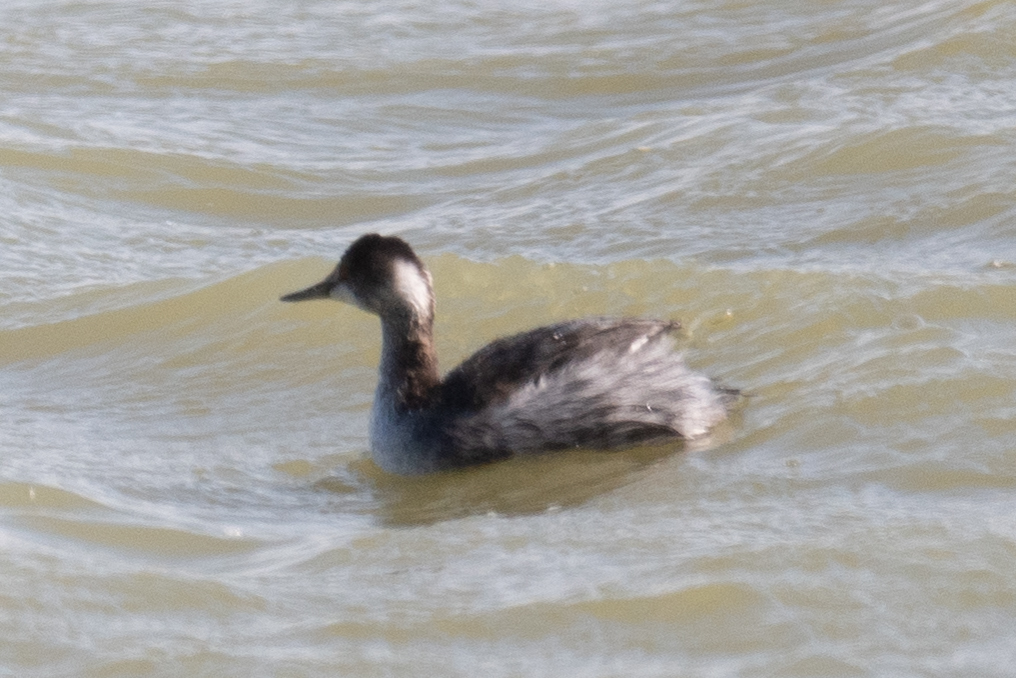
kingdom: Animalia
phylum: Chordata
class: Aves
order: Podicipediformes
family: Podicipedidae
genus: Podiceps
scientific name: Podiceps nigricollis
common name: Black-necked grebe
